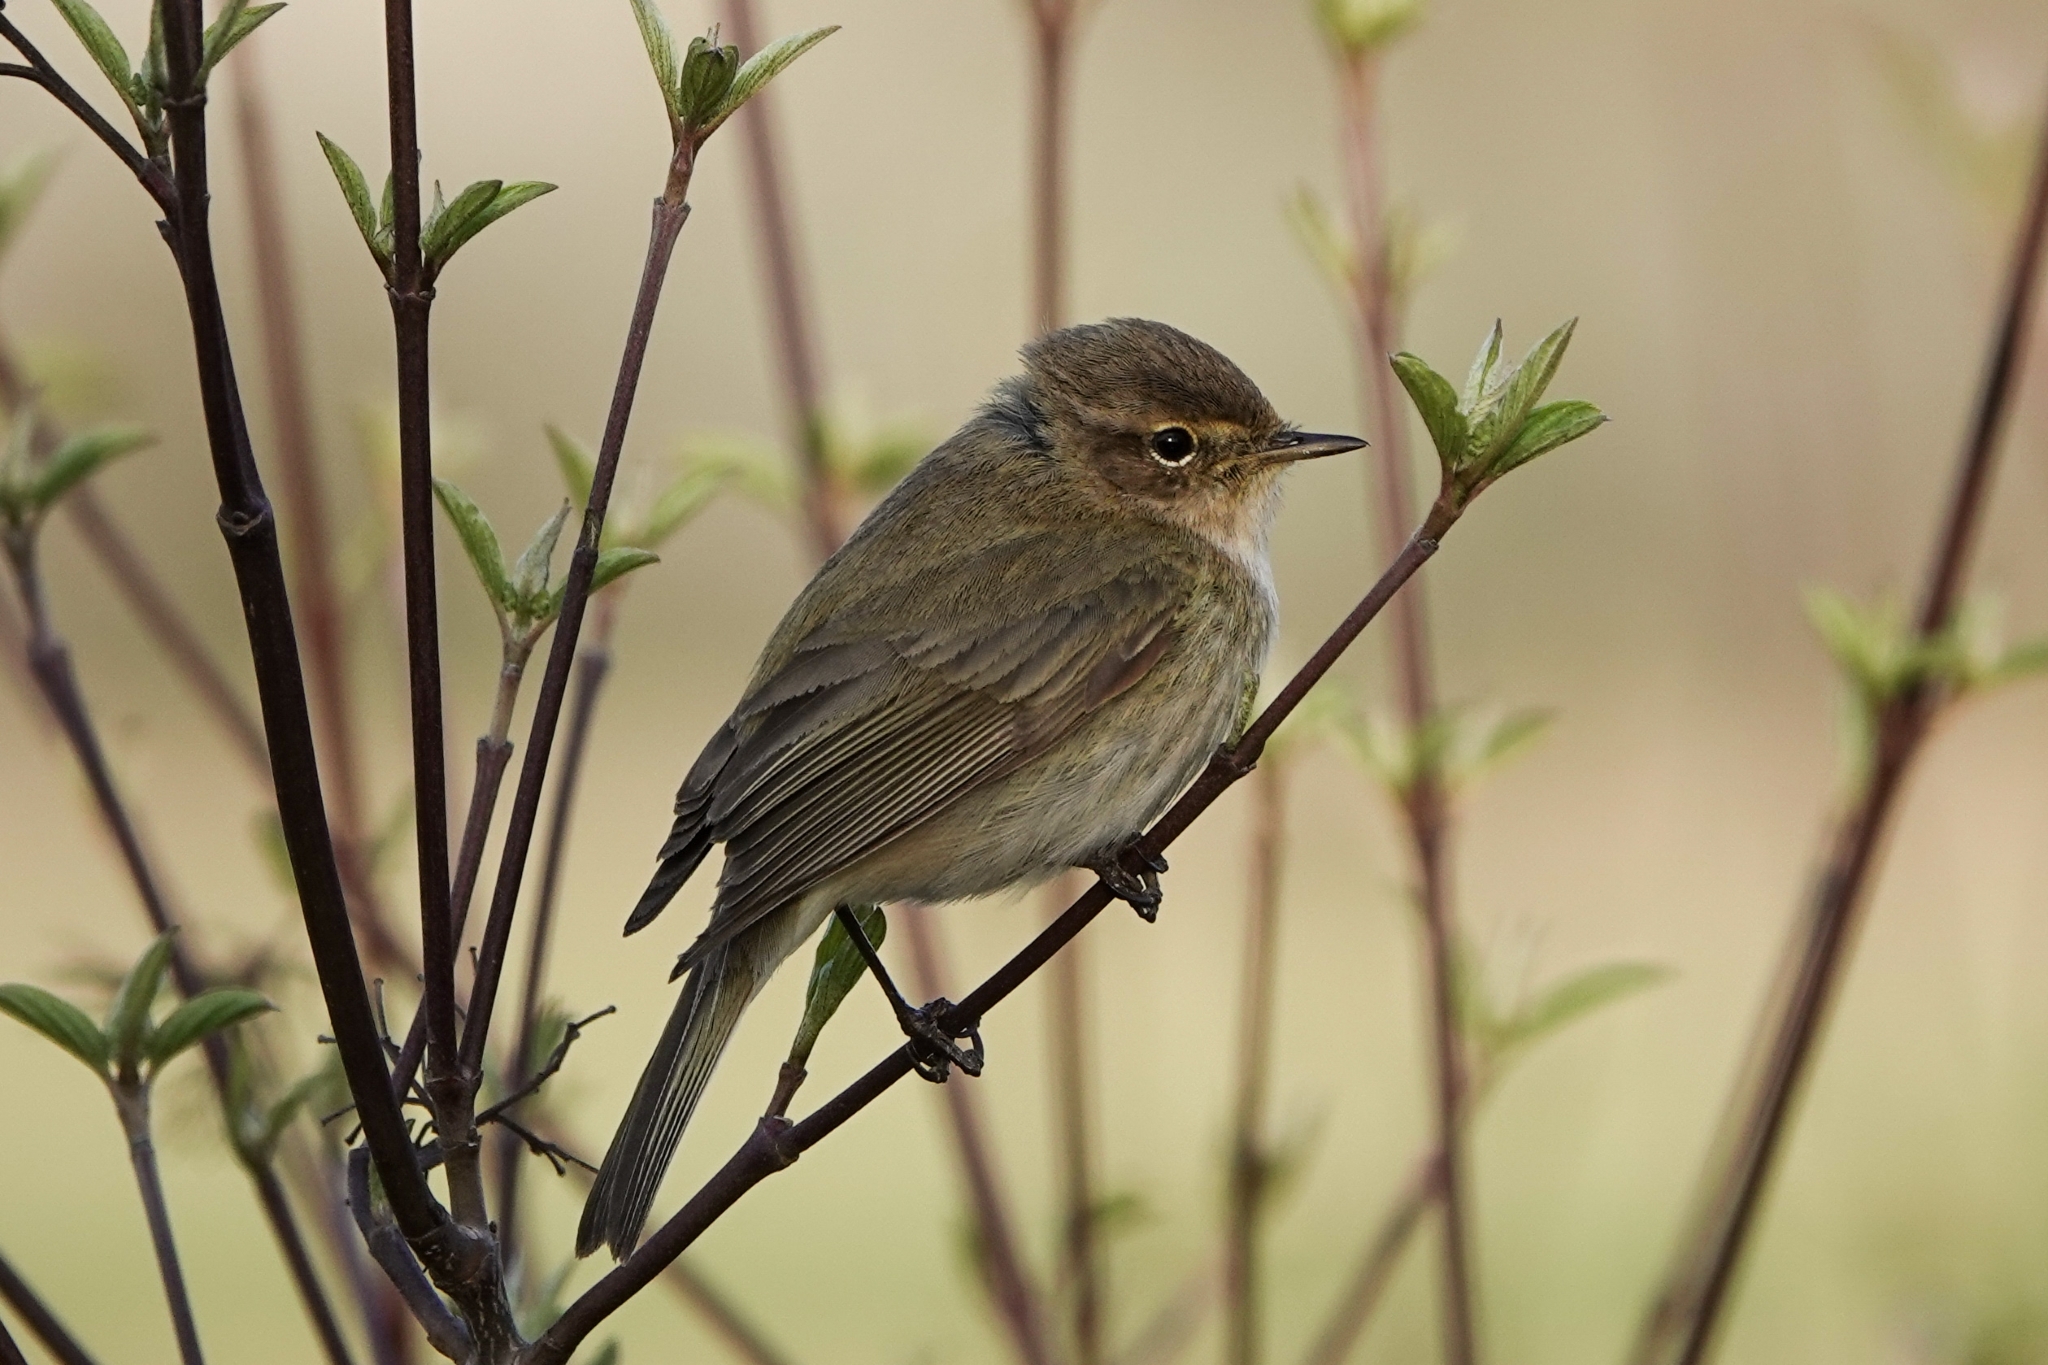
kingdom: Animalia
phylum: Chordata
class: Aves
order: Passeriformes
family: Phylloscopidae
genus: Phylloscopus
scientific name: Phylloscopus collybita
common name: Common chiffchaff
